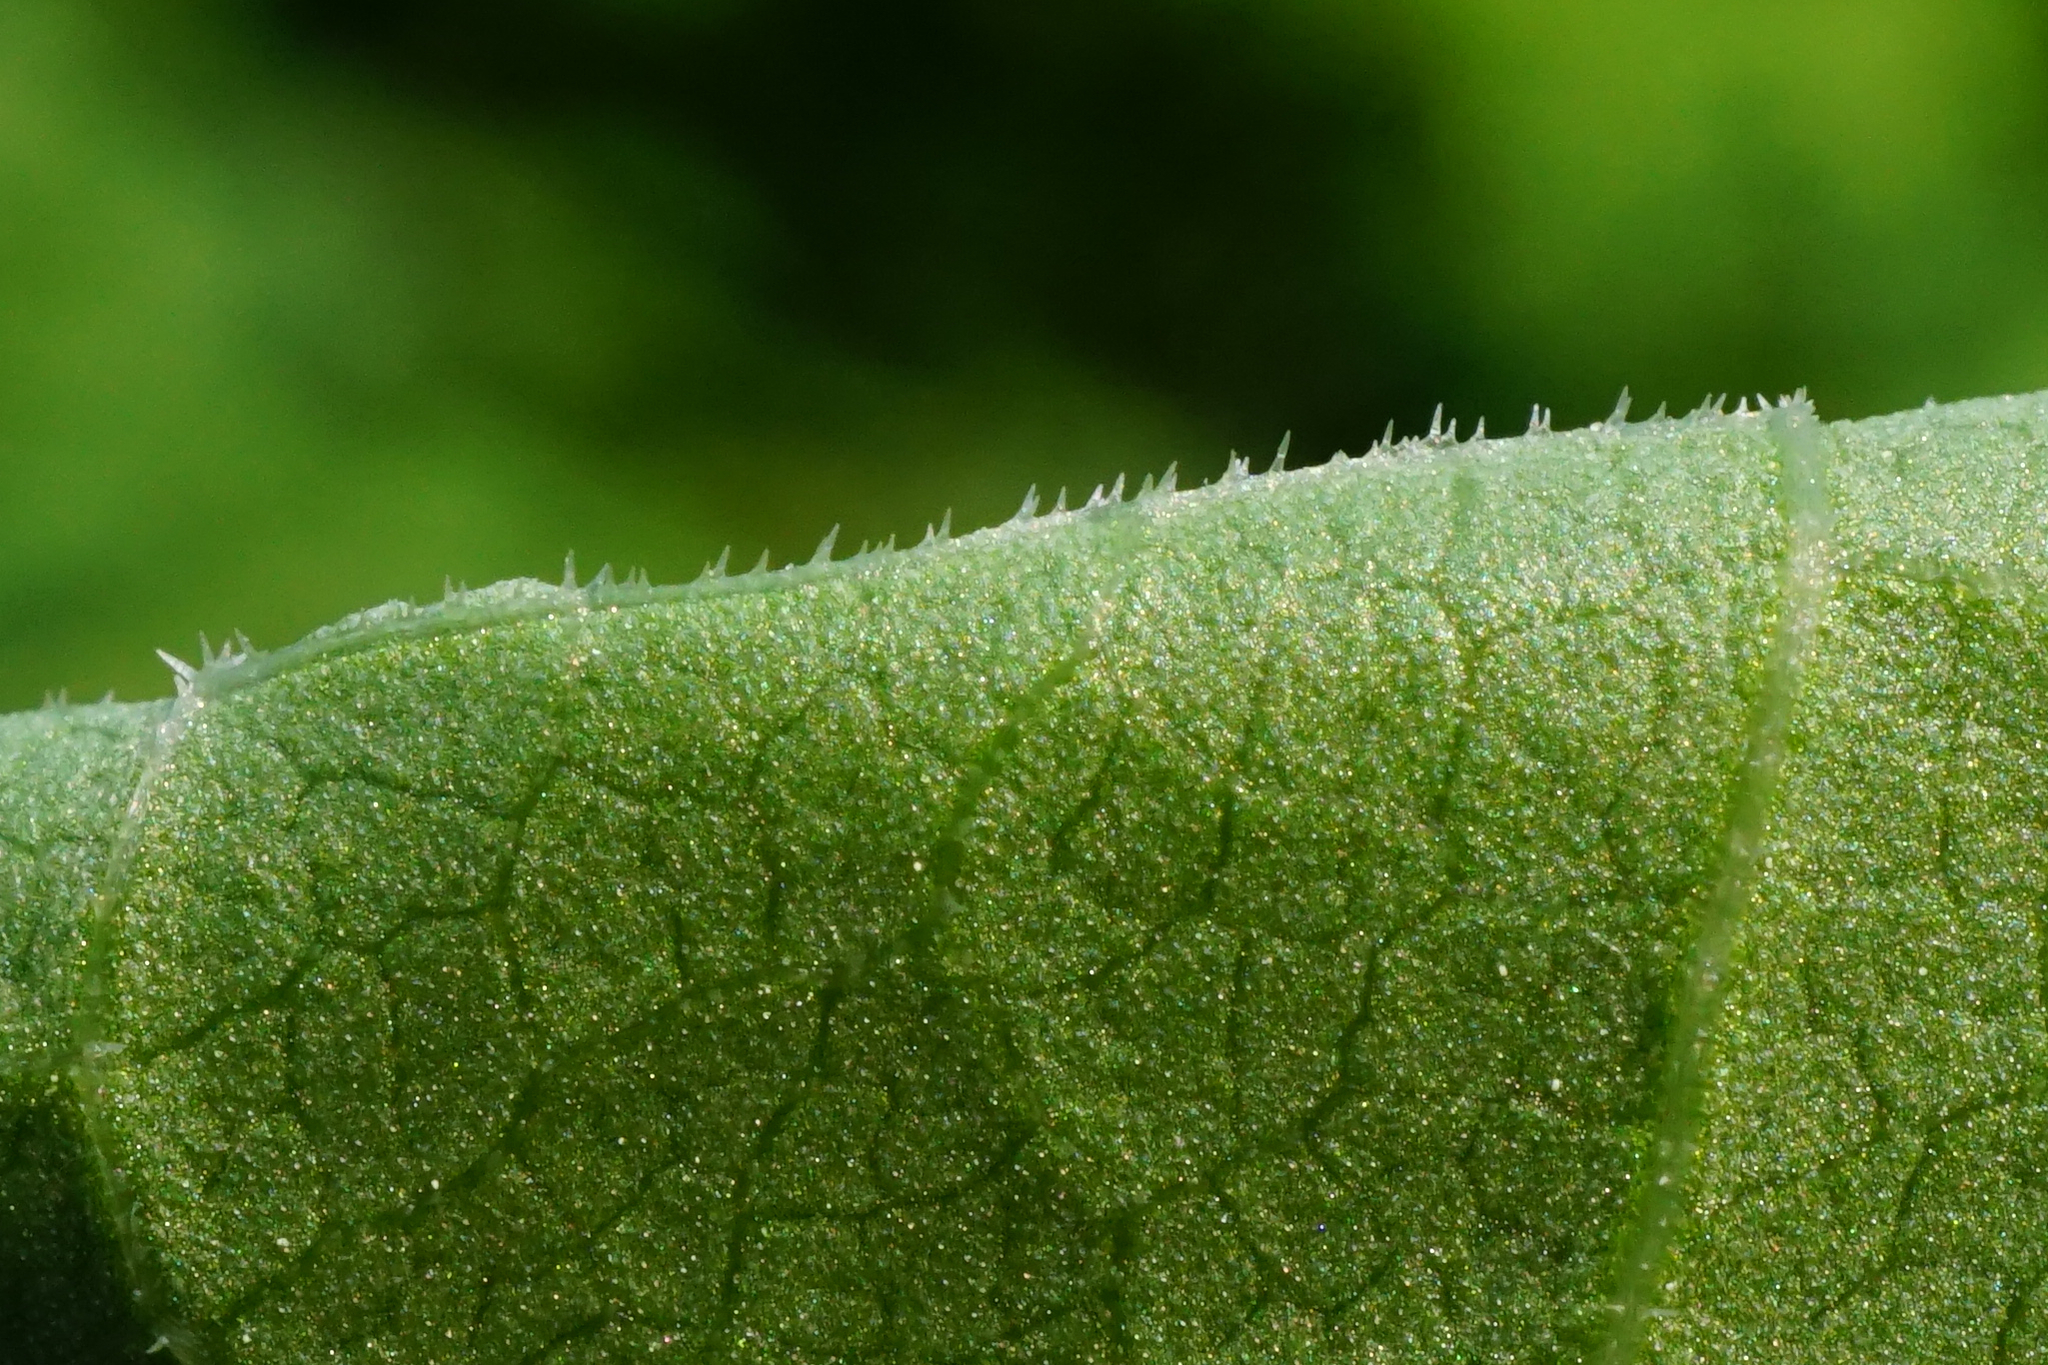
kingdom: Plantae
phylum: Tracheophyta
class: Magnoliopsida
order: Caryophyllales
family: Polygonaceae
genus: Reynoutria
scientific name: Reynoutria bohemica
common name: Bohemian knotweed
